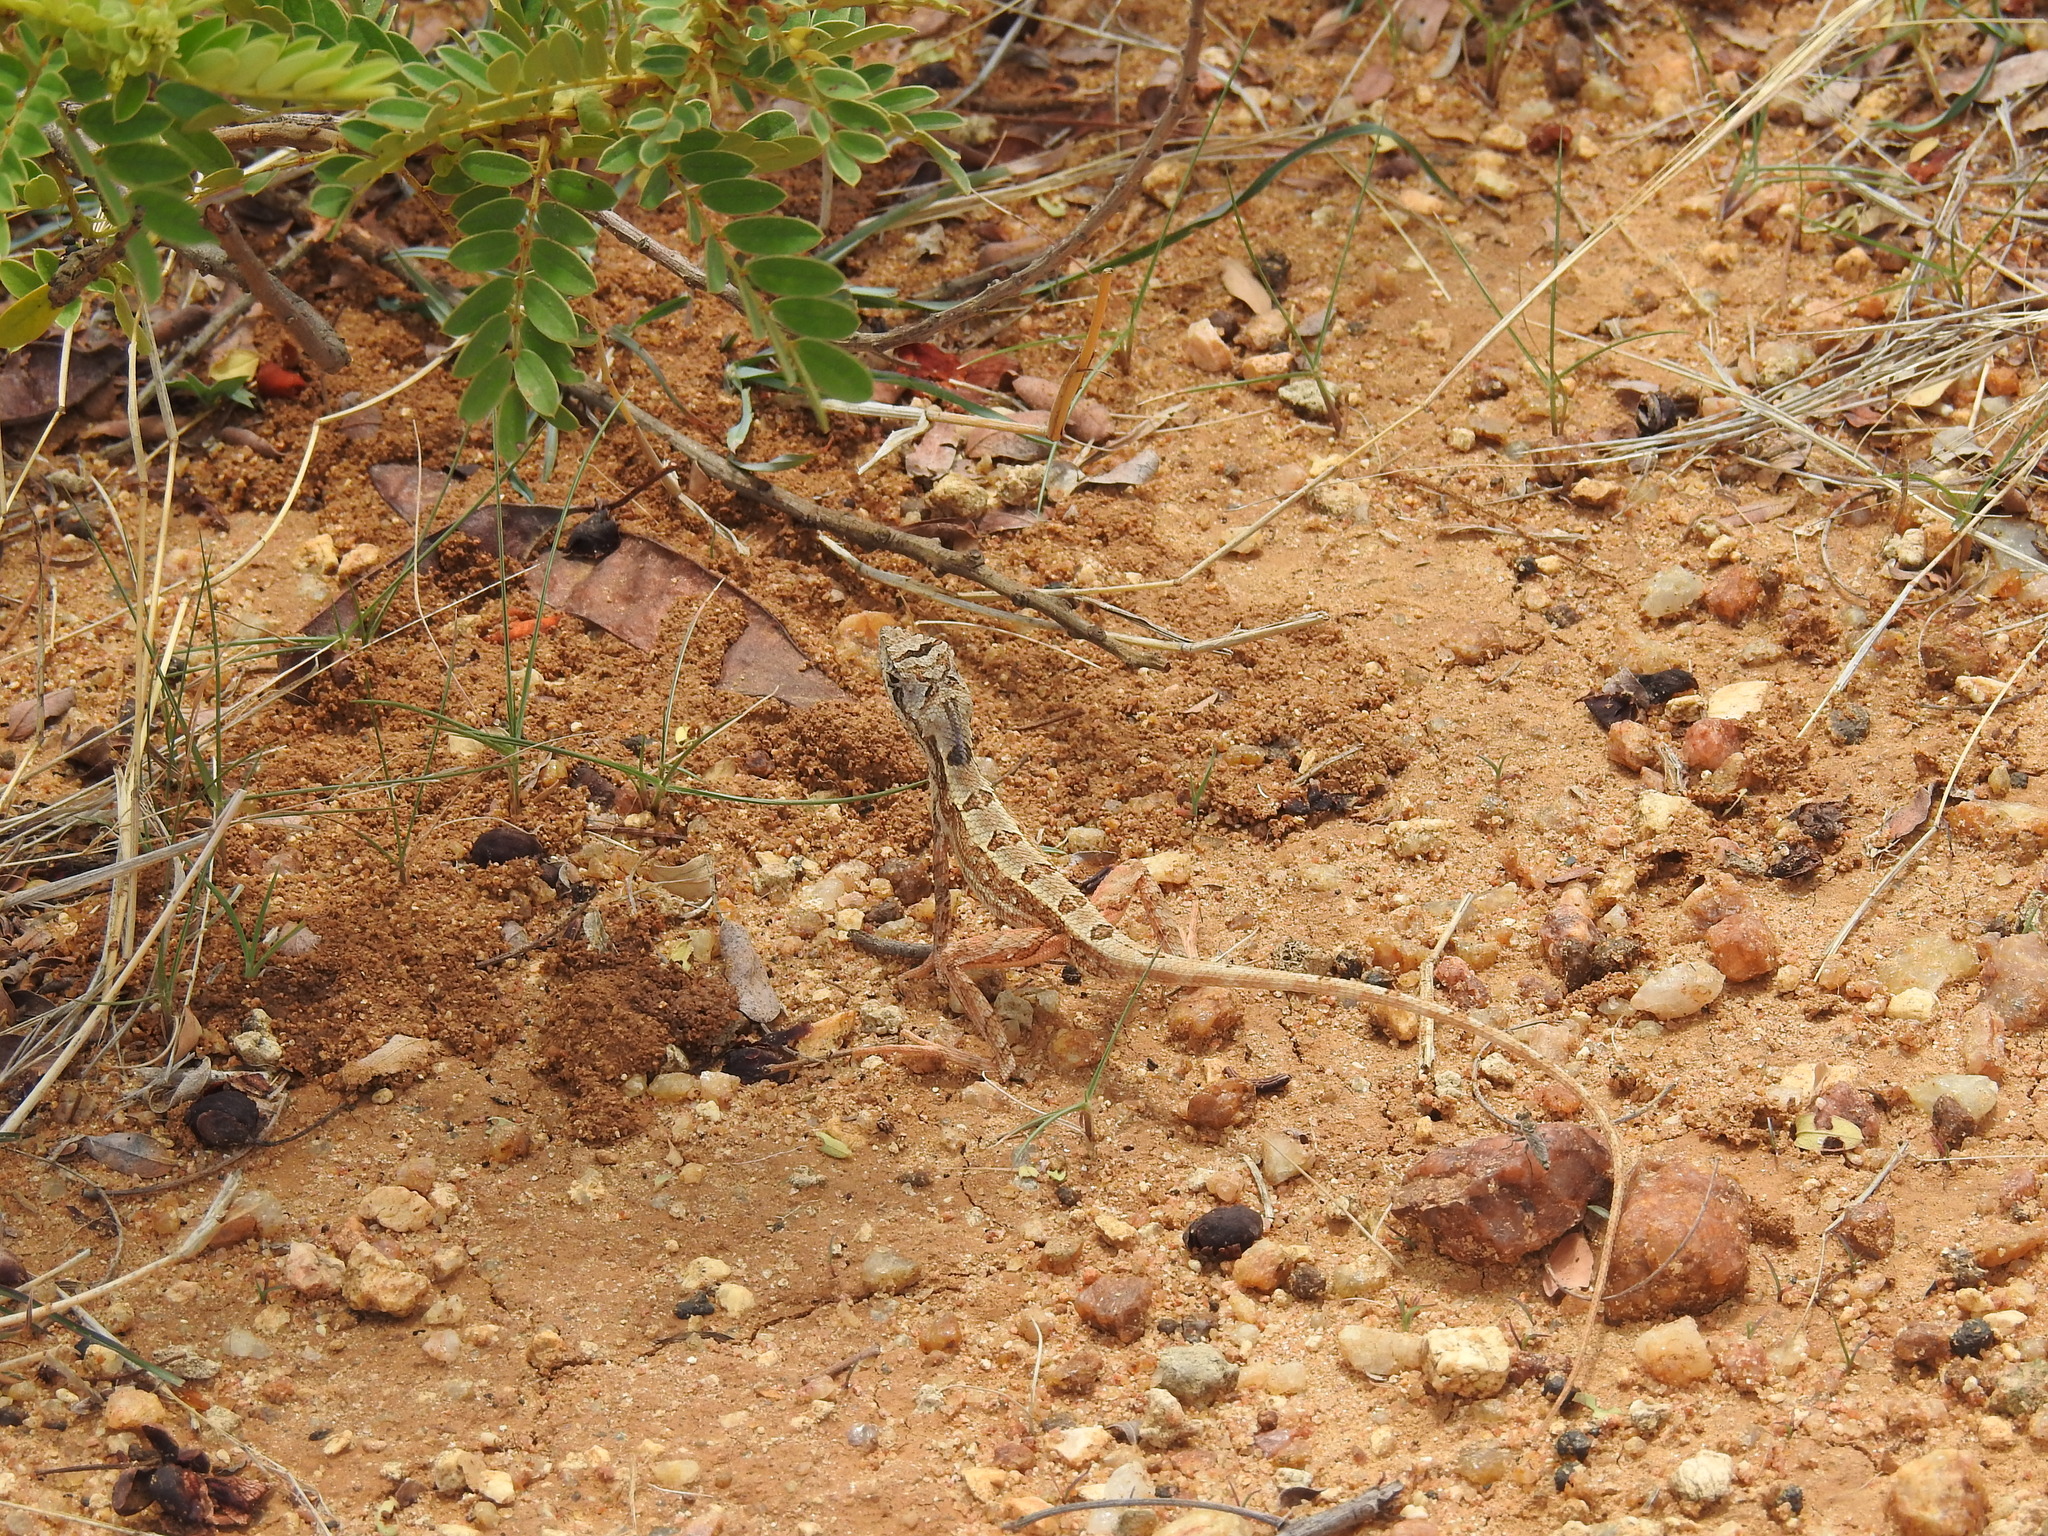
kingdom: Animalia
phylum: Chordata
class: Squamata
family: Agamidae
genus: Sitana
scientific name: Sitana ponticeriana
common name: Pondichéry fan throated lizard
